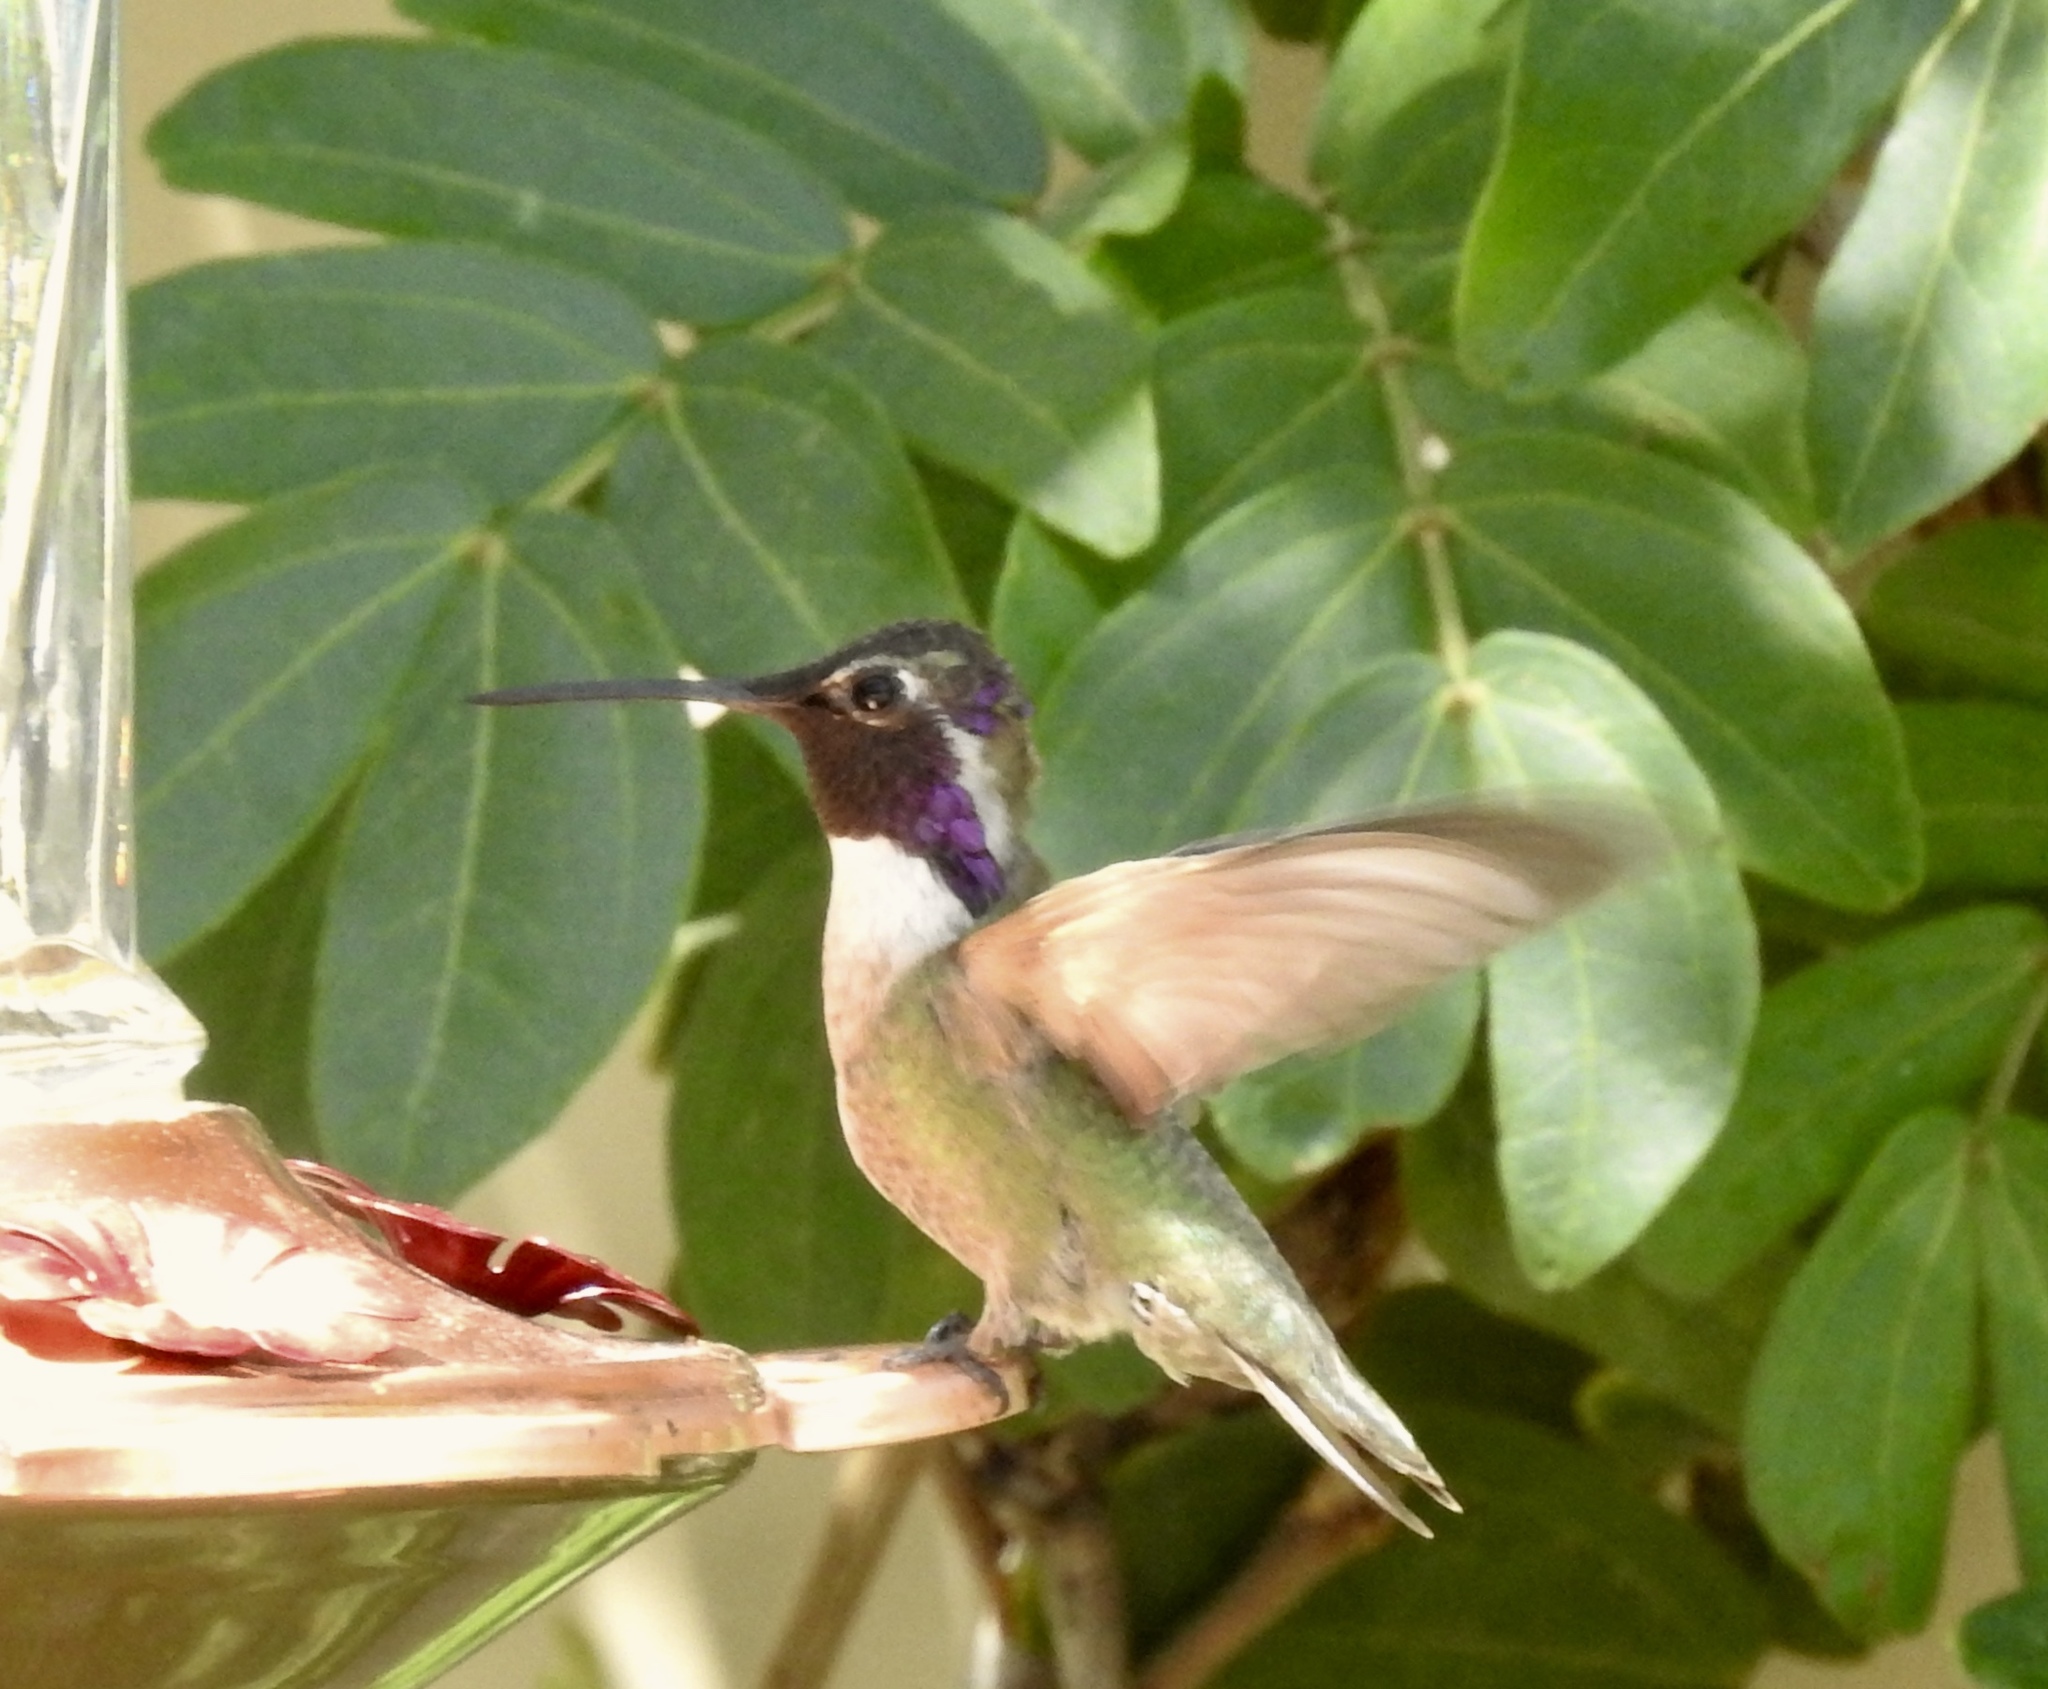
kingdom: Animalia
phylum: Chordata
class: Aves
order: Apodiformes
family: Trochilidae
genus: Calypte
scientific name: Calypte costae
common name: Costa's hummingbird
